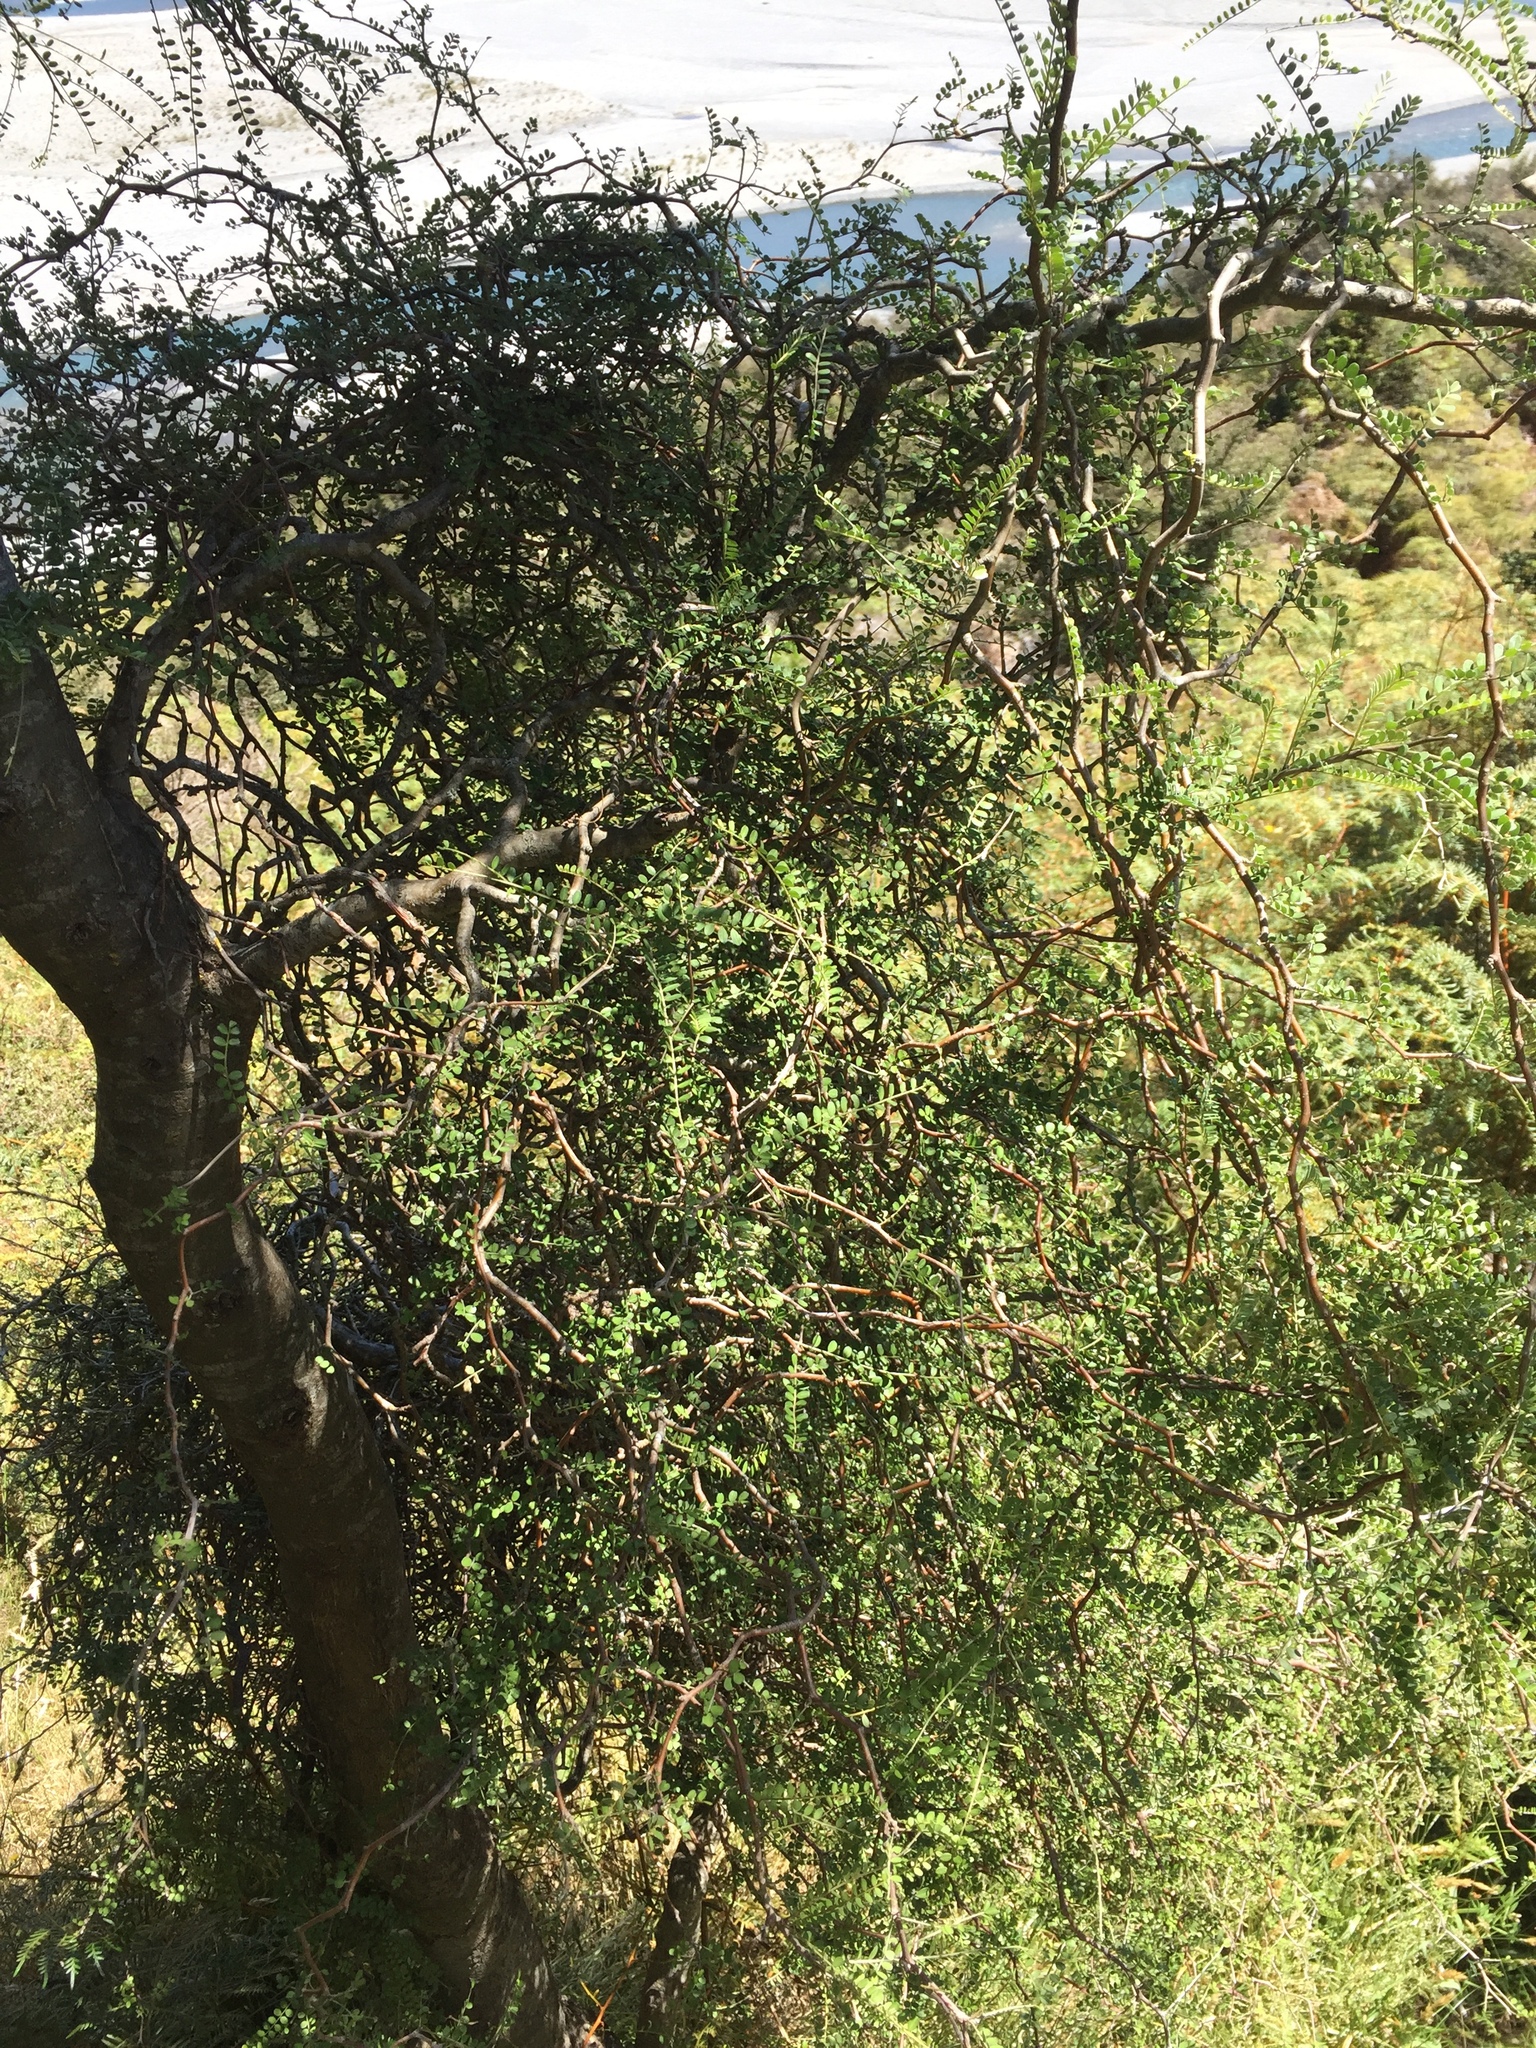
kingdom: Plantae
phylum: Tracheophyta
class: Magnoliopsida
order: Fabales
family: Fabaceae
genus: Sophora
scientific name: Sophora microphylla
